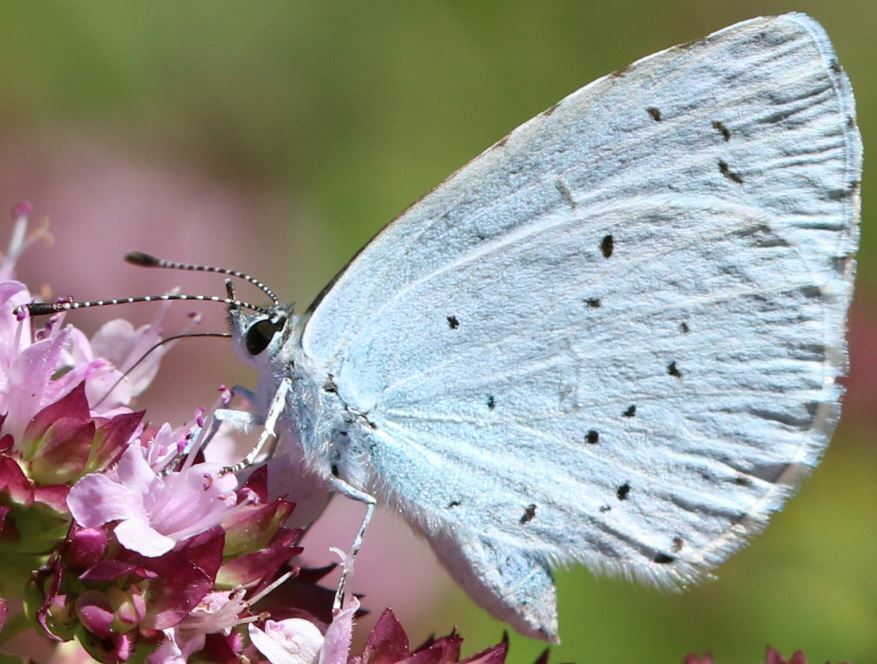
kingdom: Animalia
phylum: Arthropoda
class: Insecta
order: Lepidoptera
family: Lycaenidae
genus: Celastrina
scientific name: Celastrina argiolus
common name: Holly blue
